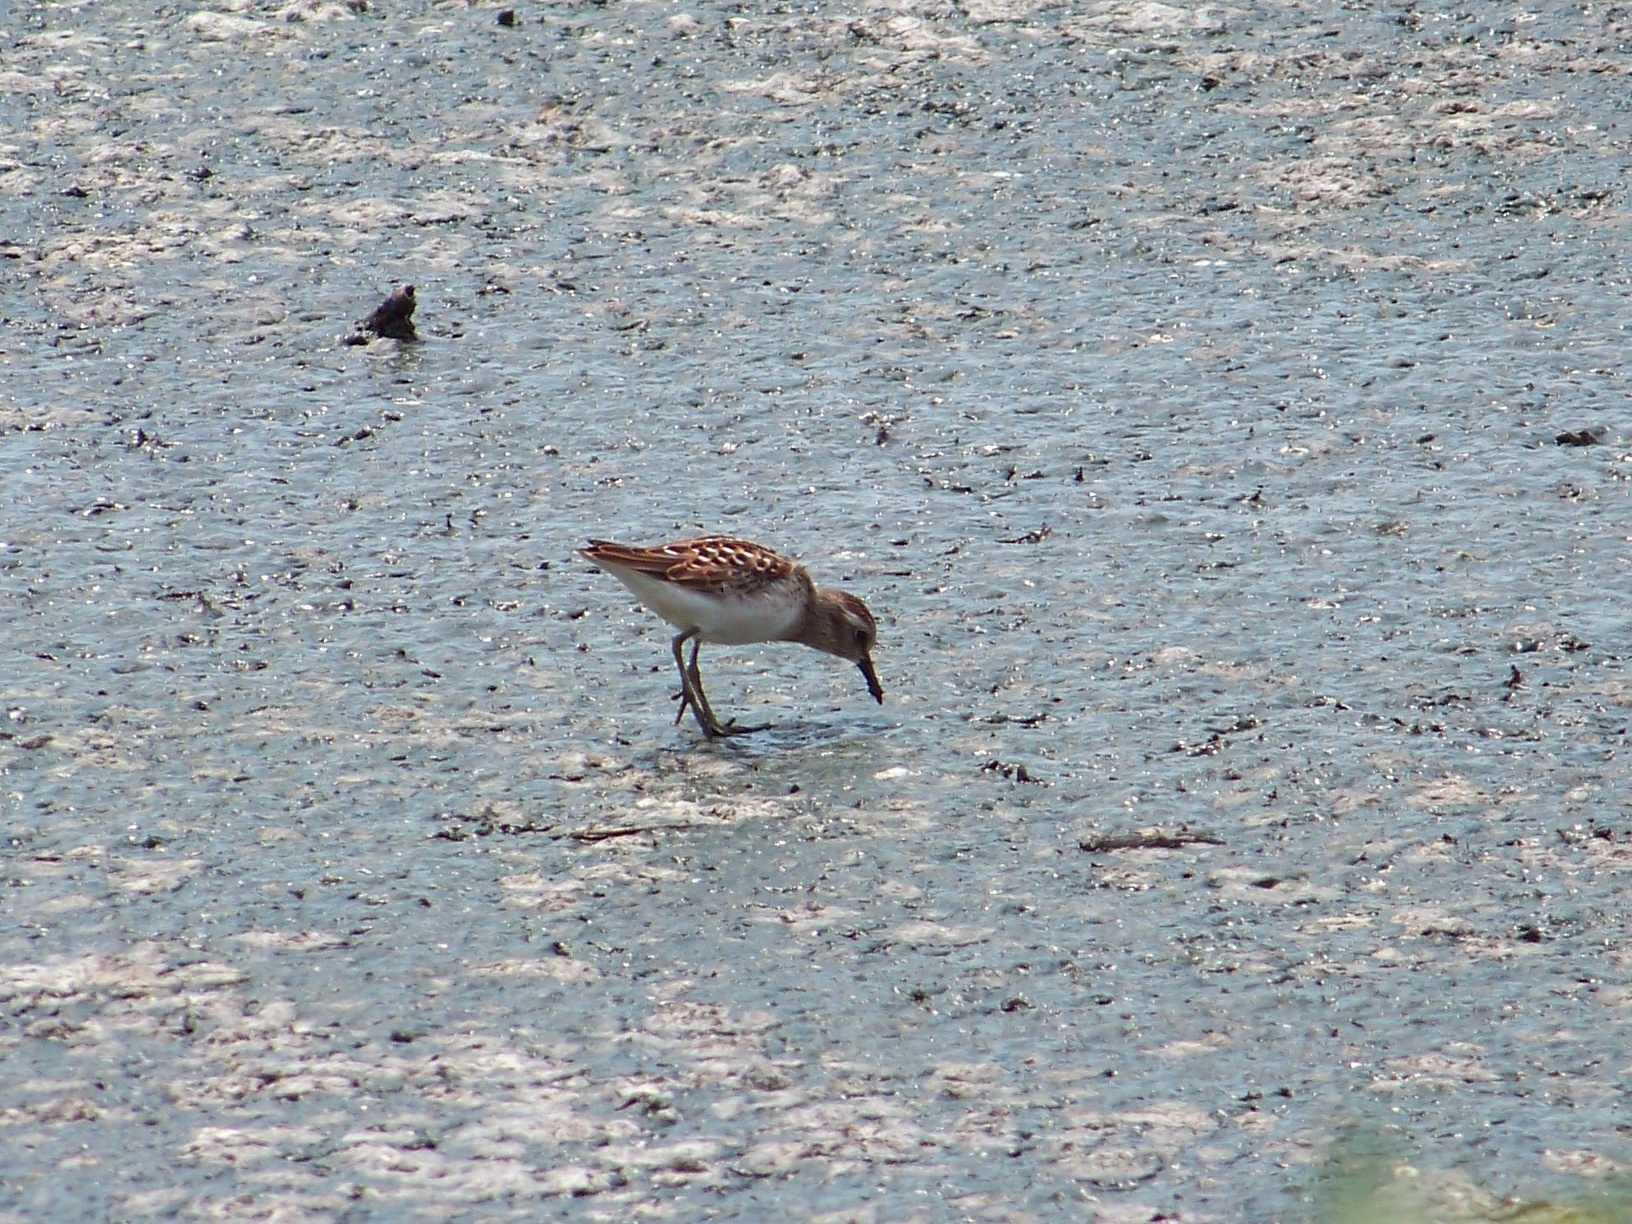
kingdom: Animalia
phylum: Chordata
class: Aves
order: Charadriiformes
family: Scolopacidae
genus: Calidris
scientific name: Calidris minutilla
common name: Least sandpiper
